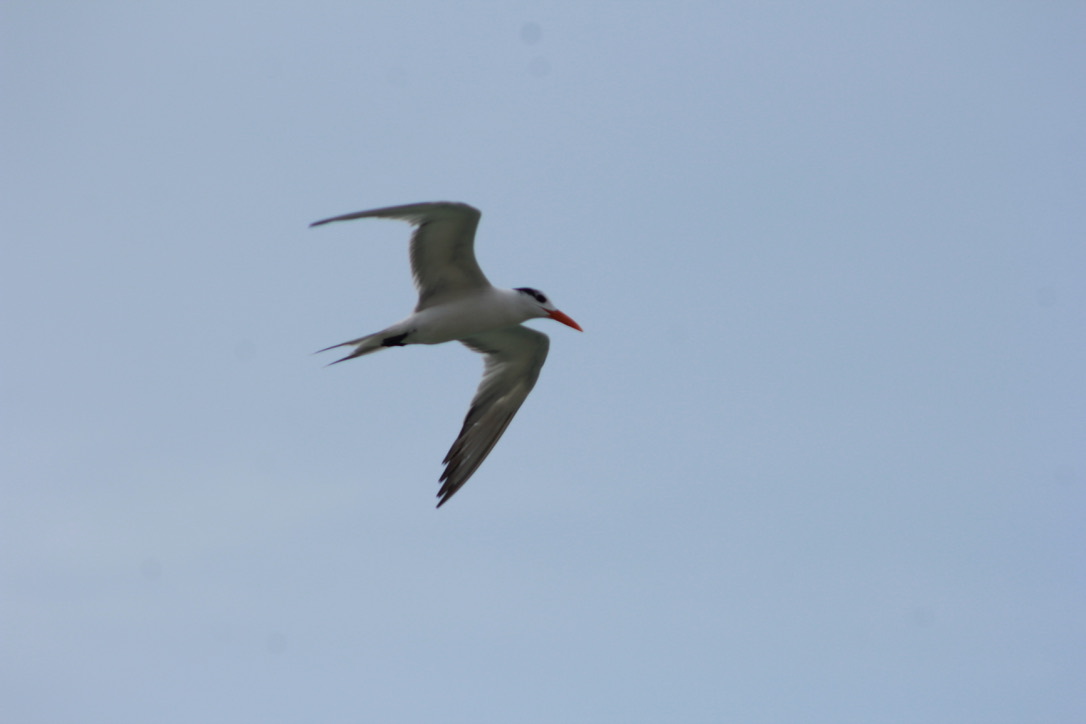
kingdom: Animalia
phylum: Chordata
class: Aves
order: Charadriiformes
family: Laridae
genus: Thalasseus
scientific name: Thalasseus maximus
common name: Royal tern
